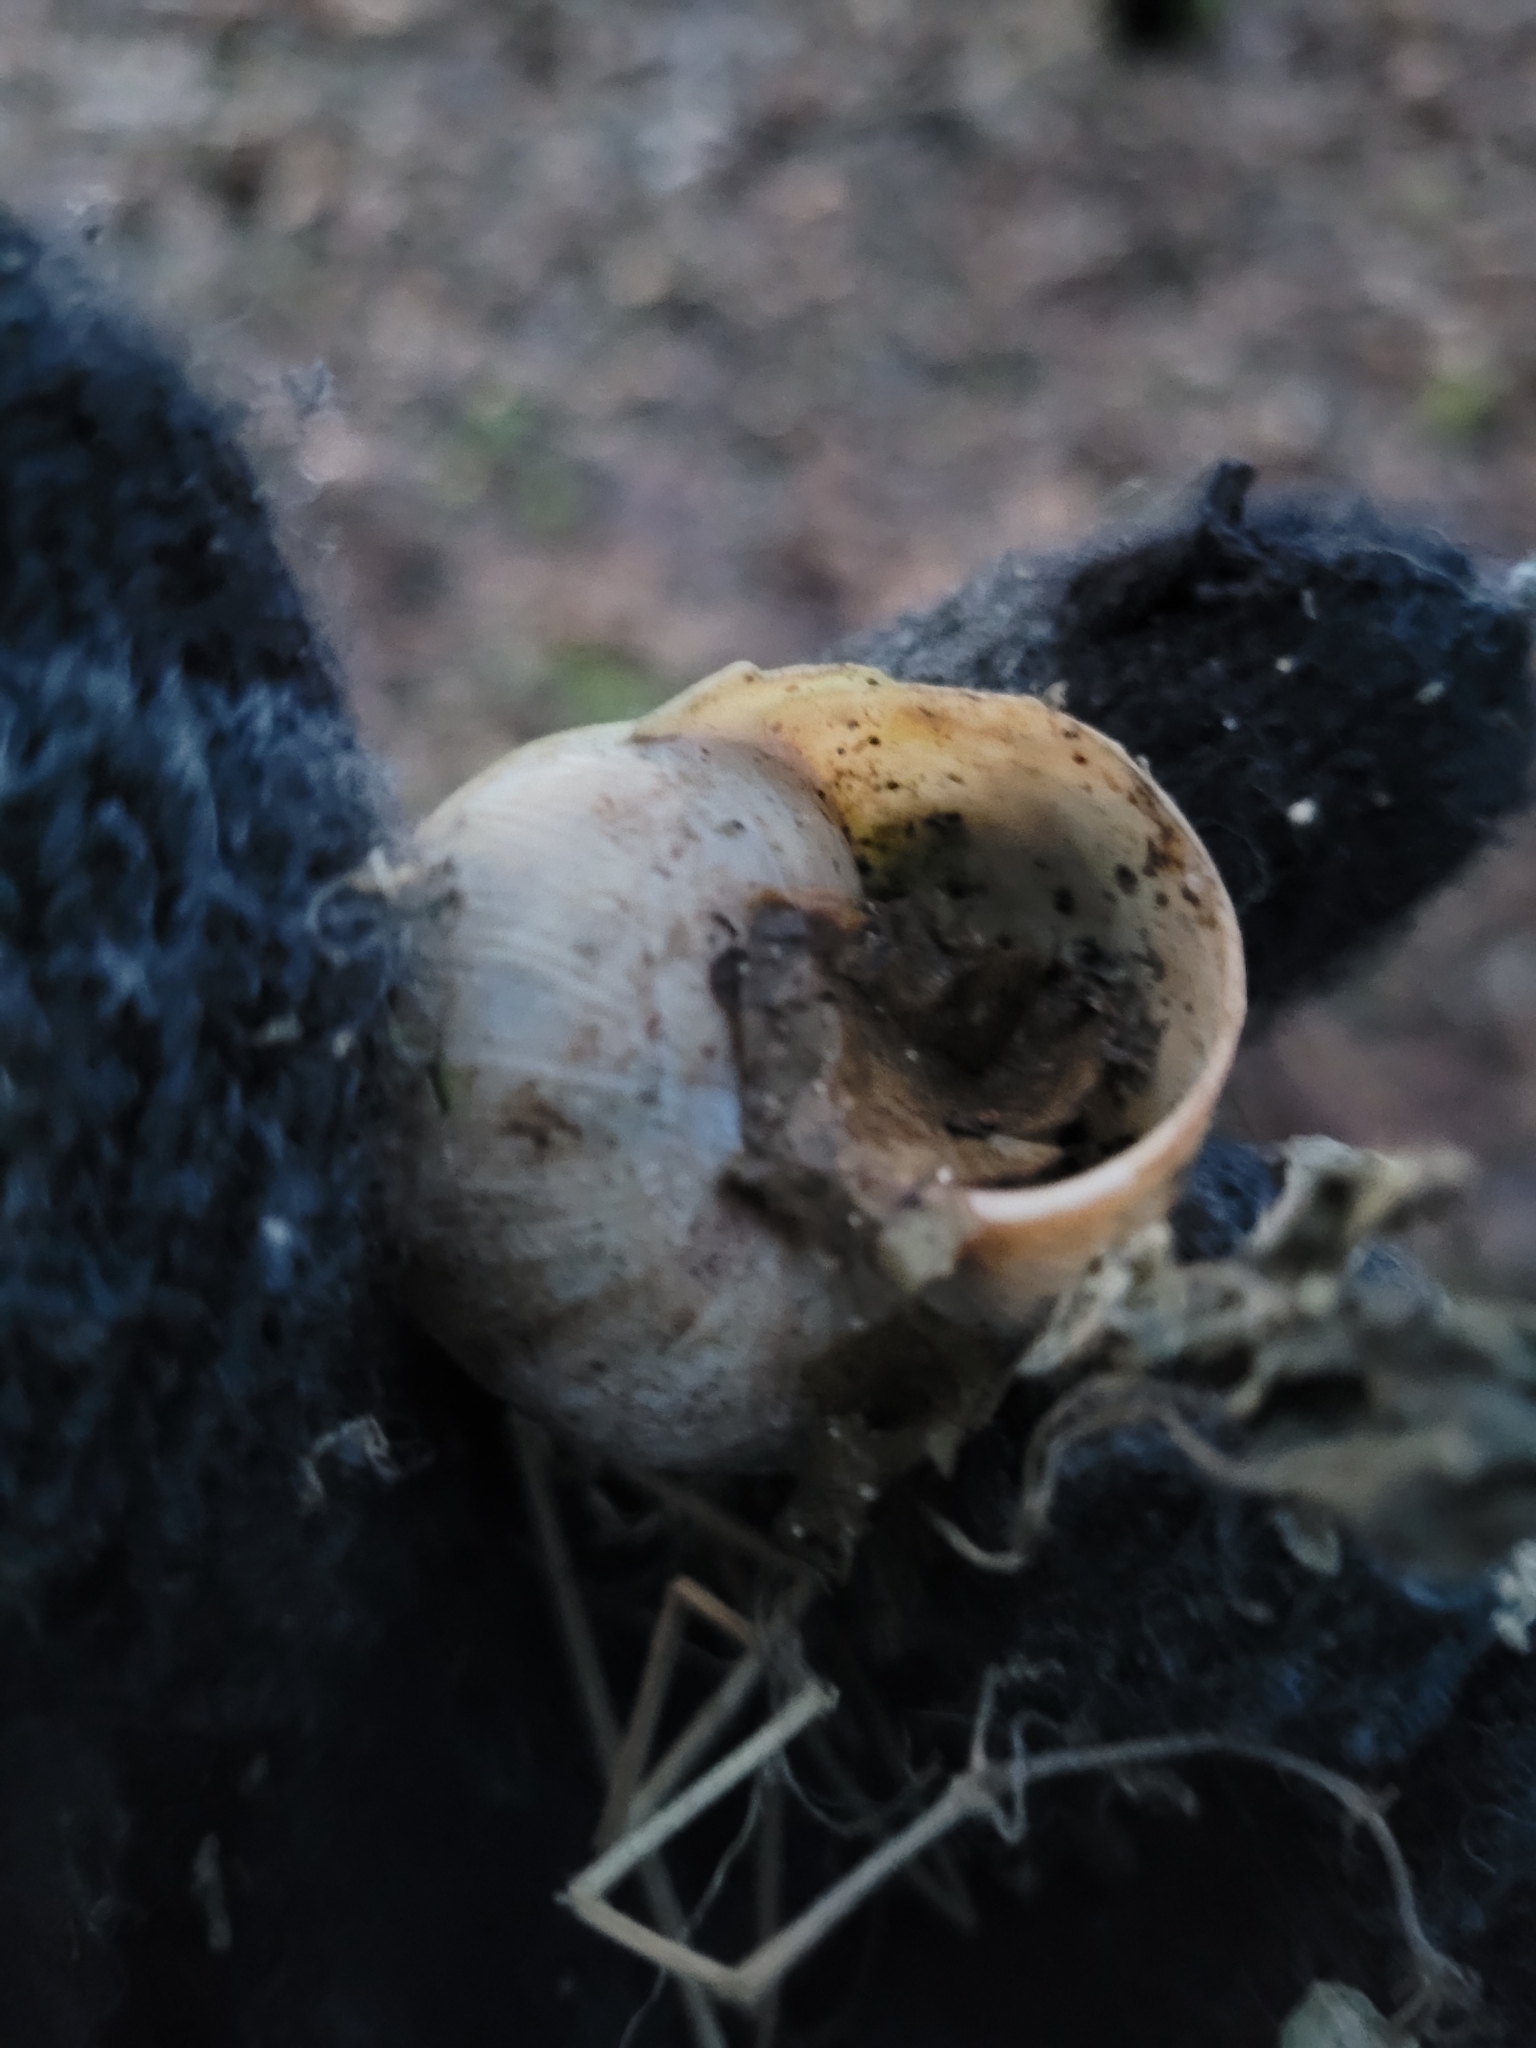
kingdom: Animalia
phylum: Mollusca
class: Gastropoda
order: Stylommatophora
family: Helicidae
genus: Helix
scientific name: Helix pomatia
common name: Roman snail
